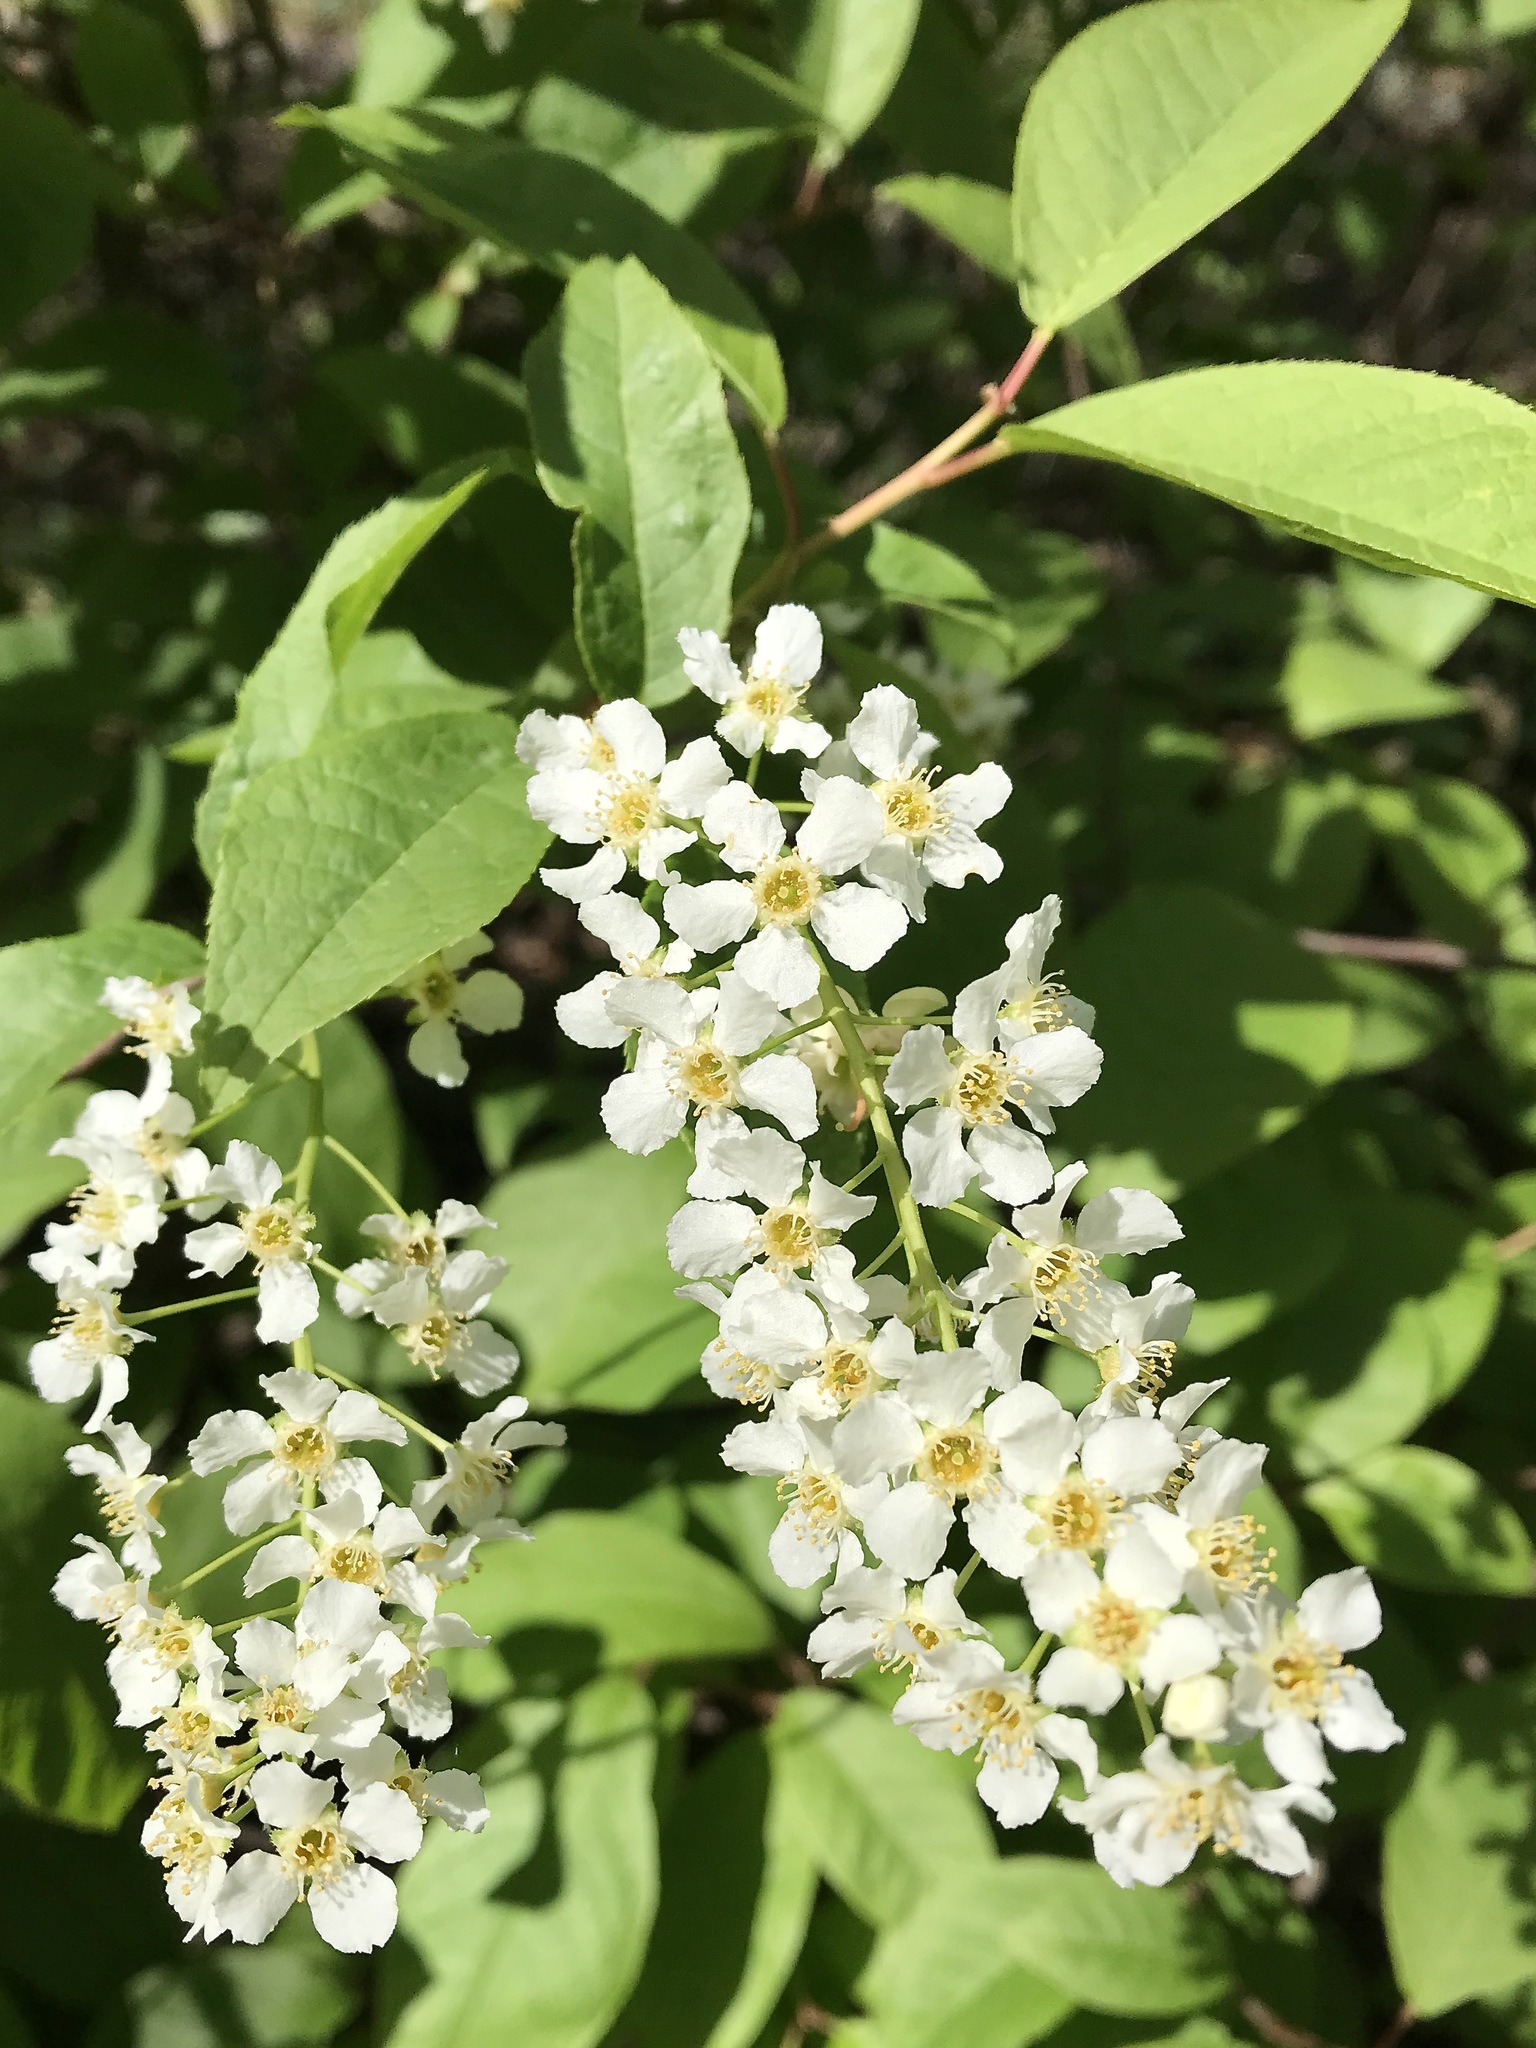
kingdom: Plantae
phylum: Tracheophyta
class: Magnoliopsida
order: Rosales
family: Rosaceae
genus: Prunus
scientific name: Prunus padus
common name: Bird cherry
